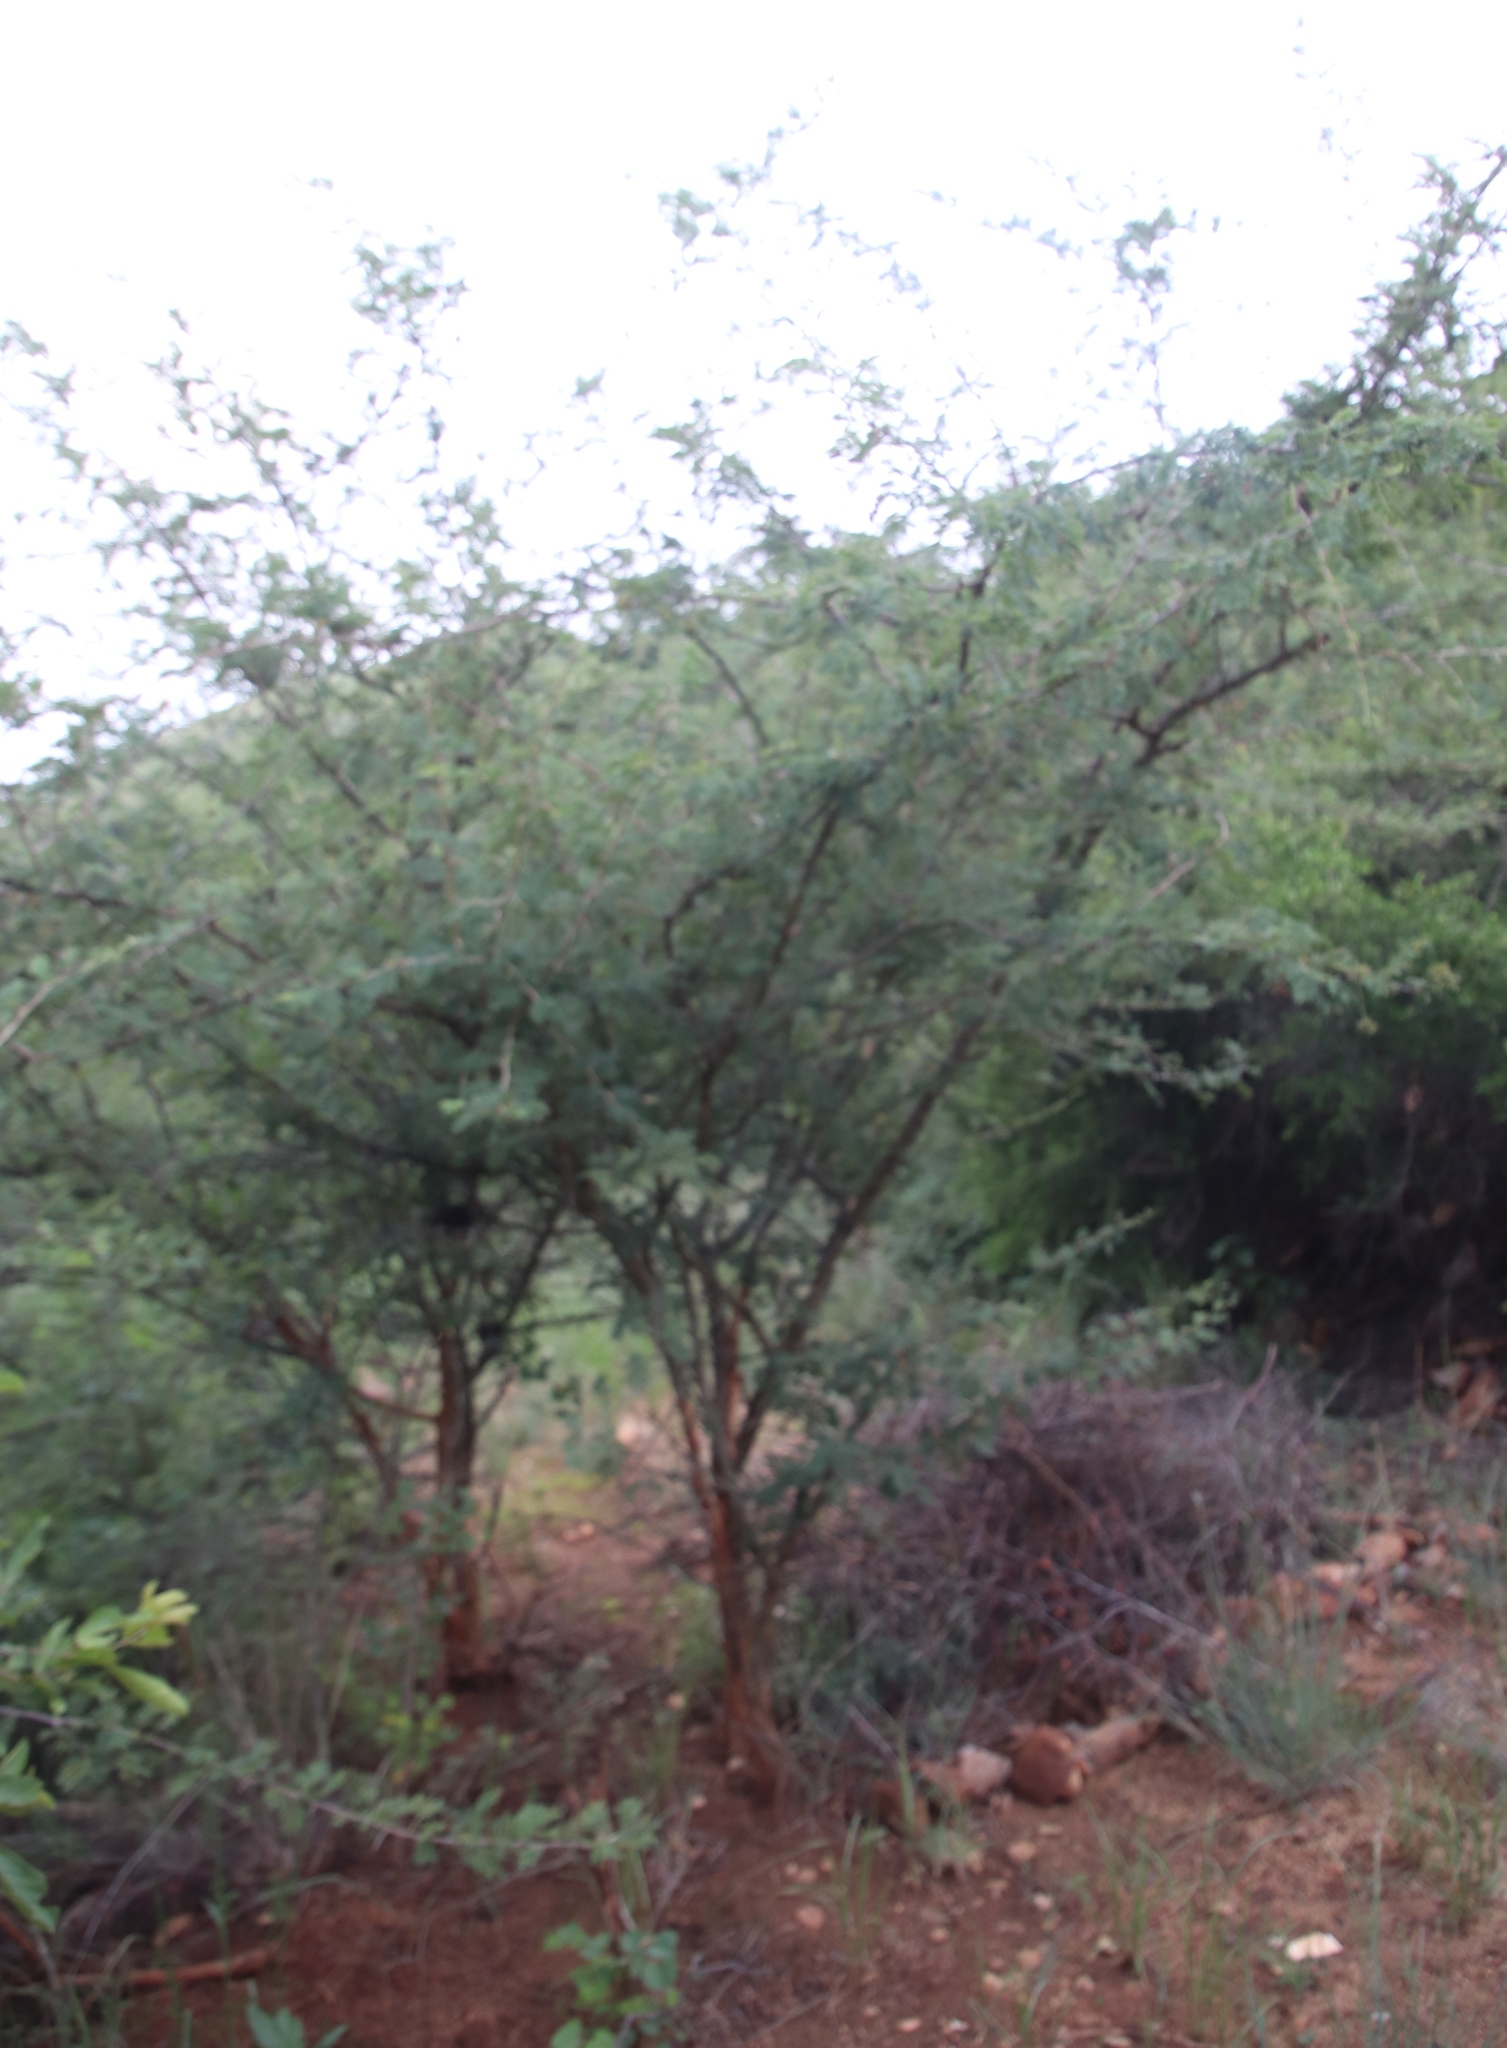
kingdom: Plantae
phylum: Tracheophyta
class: Magnoliopsida
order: Fabales
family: Fabaceae
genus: Dichrostachys
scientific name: Dichrostachys cinerea
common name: Sicklebush
